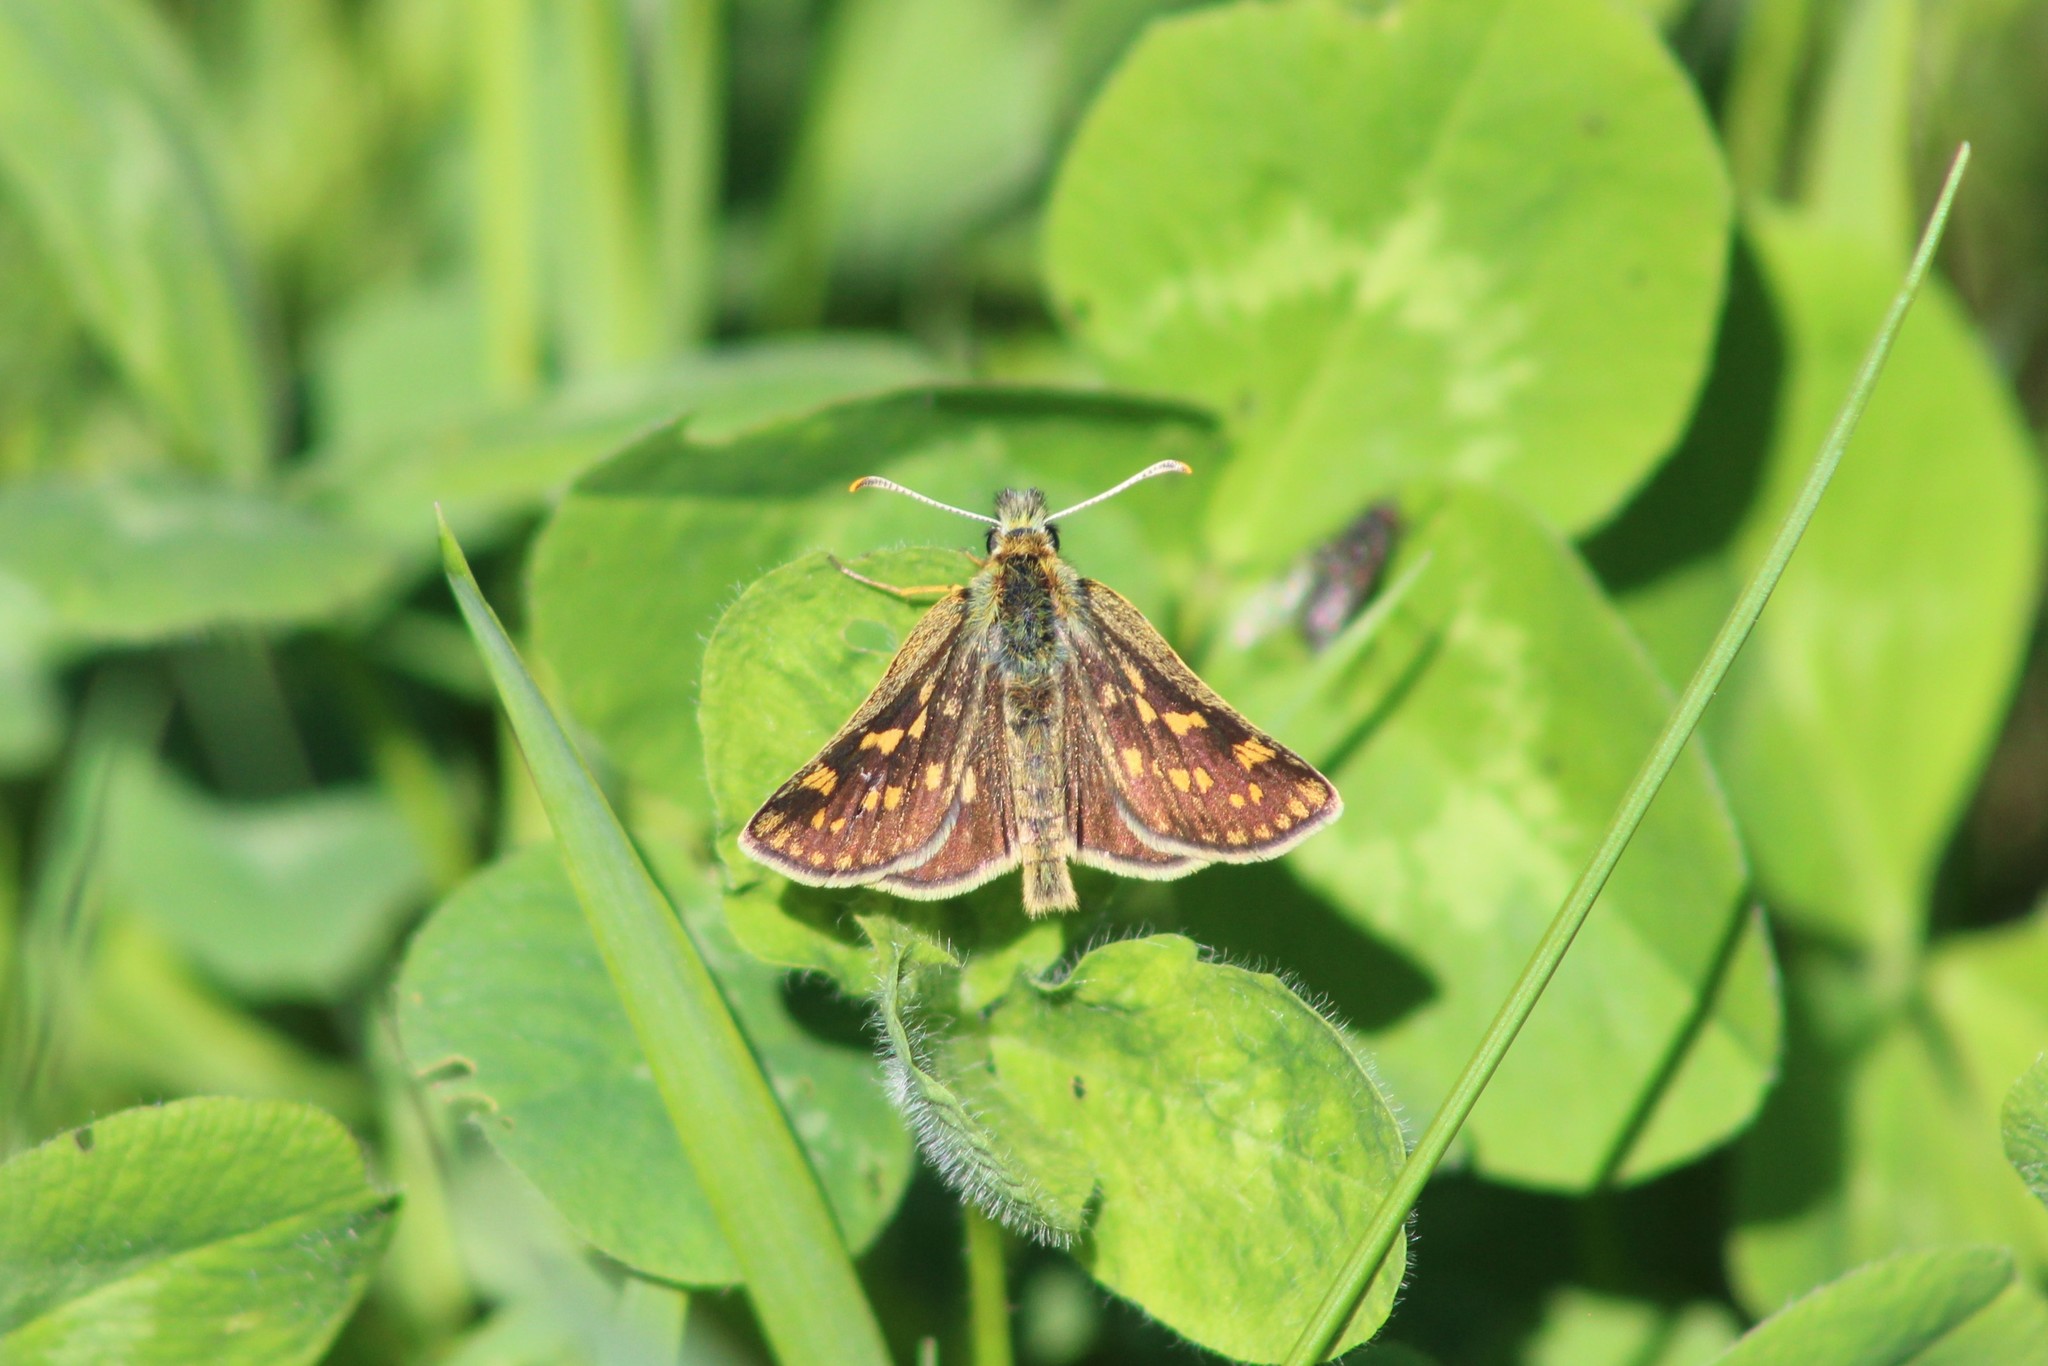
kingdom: Animalia
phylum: Arthropoda
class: Insecta
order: Lepidoptera
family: Hesperiidae
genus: Carterocephalus
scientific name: Carterocephalus palaemon
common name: Chequered skipper
